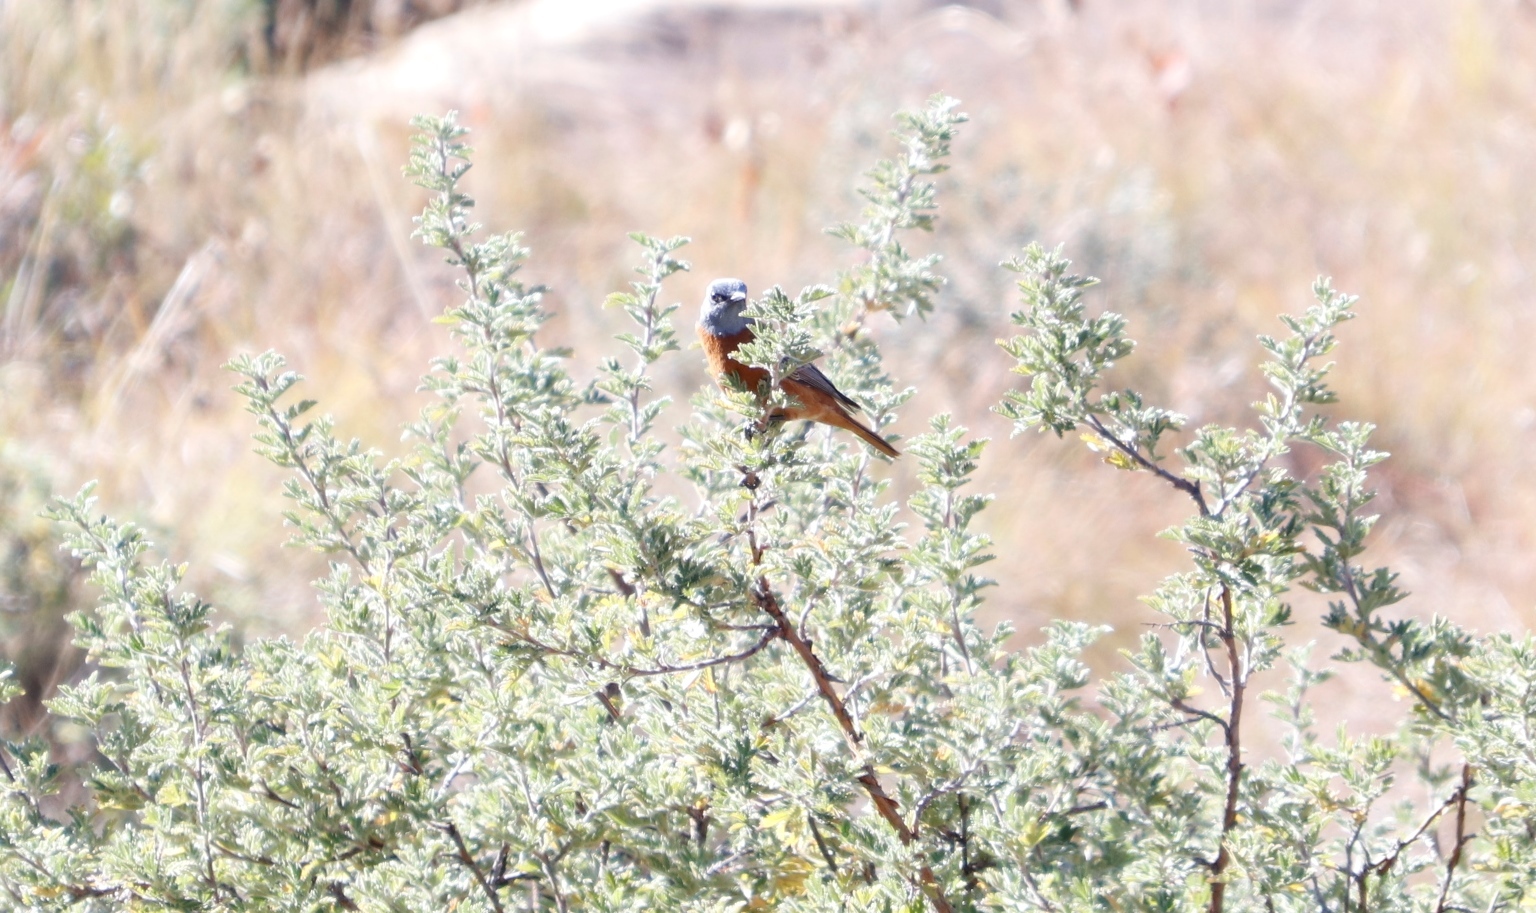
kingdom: Plantae
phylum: Tracheophyta
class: Magnoliopsida
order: Rosales
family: Rosaceae
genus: Leucosidea
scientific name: Leucosidea sericea
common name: Oldwood
